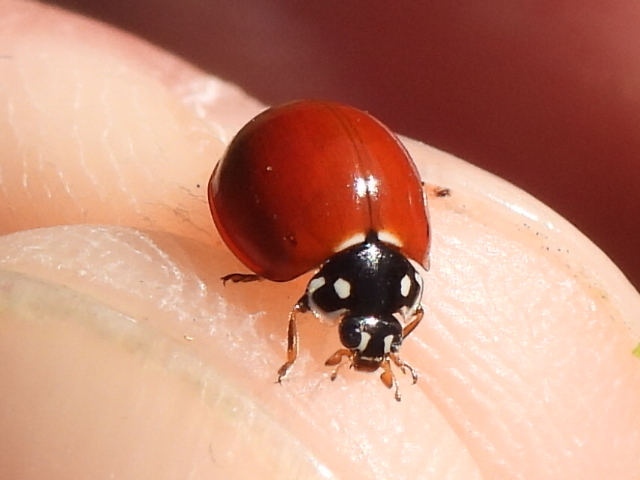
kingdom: Animalia
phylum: Arthropoda
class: Insecta
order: Coleoptera
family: Coccinellidae
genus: Cycloneda
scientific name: Cycloneda sanguinea
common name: Ladybird beetle
